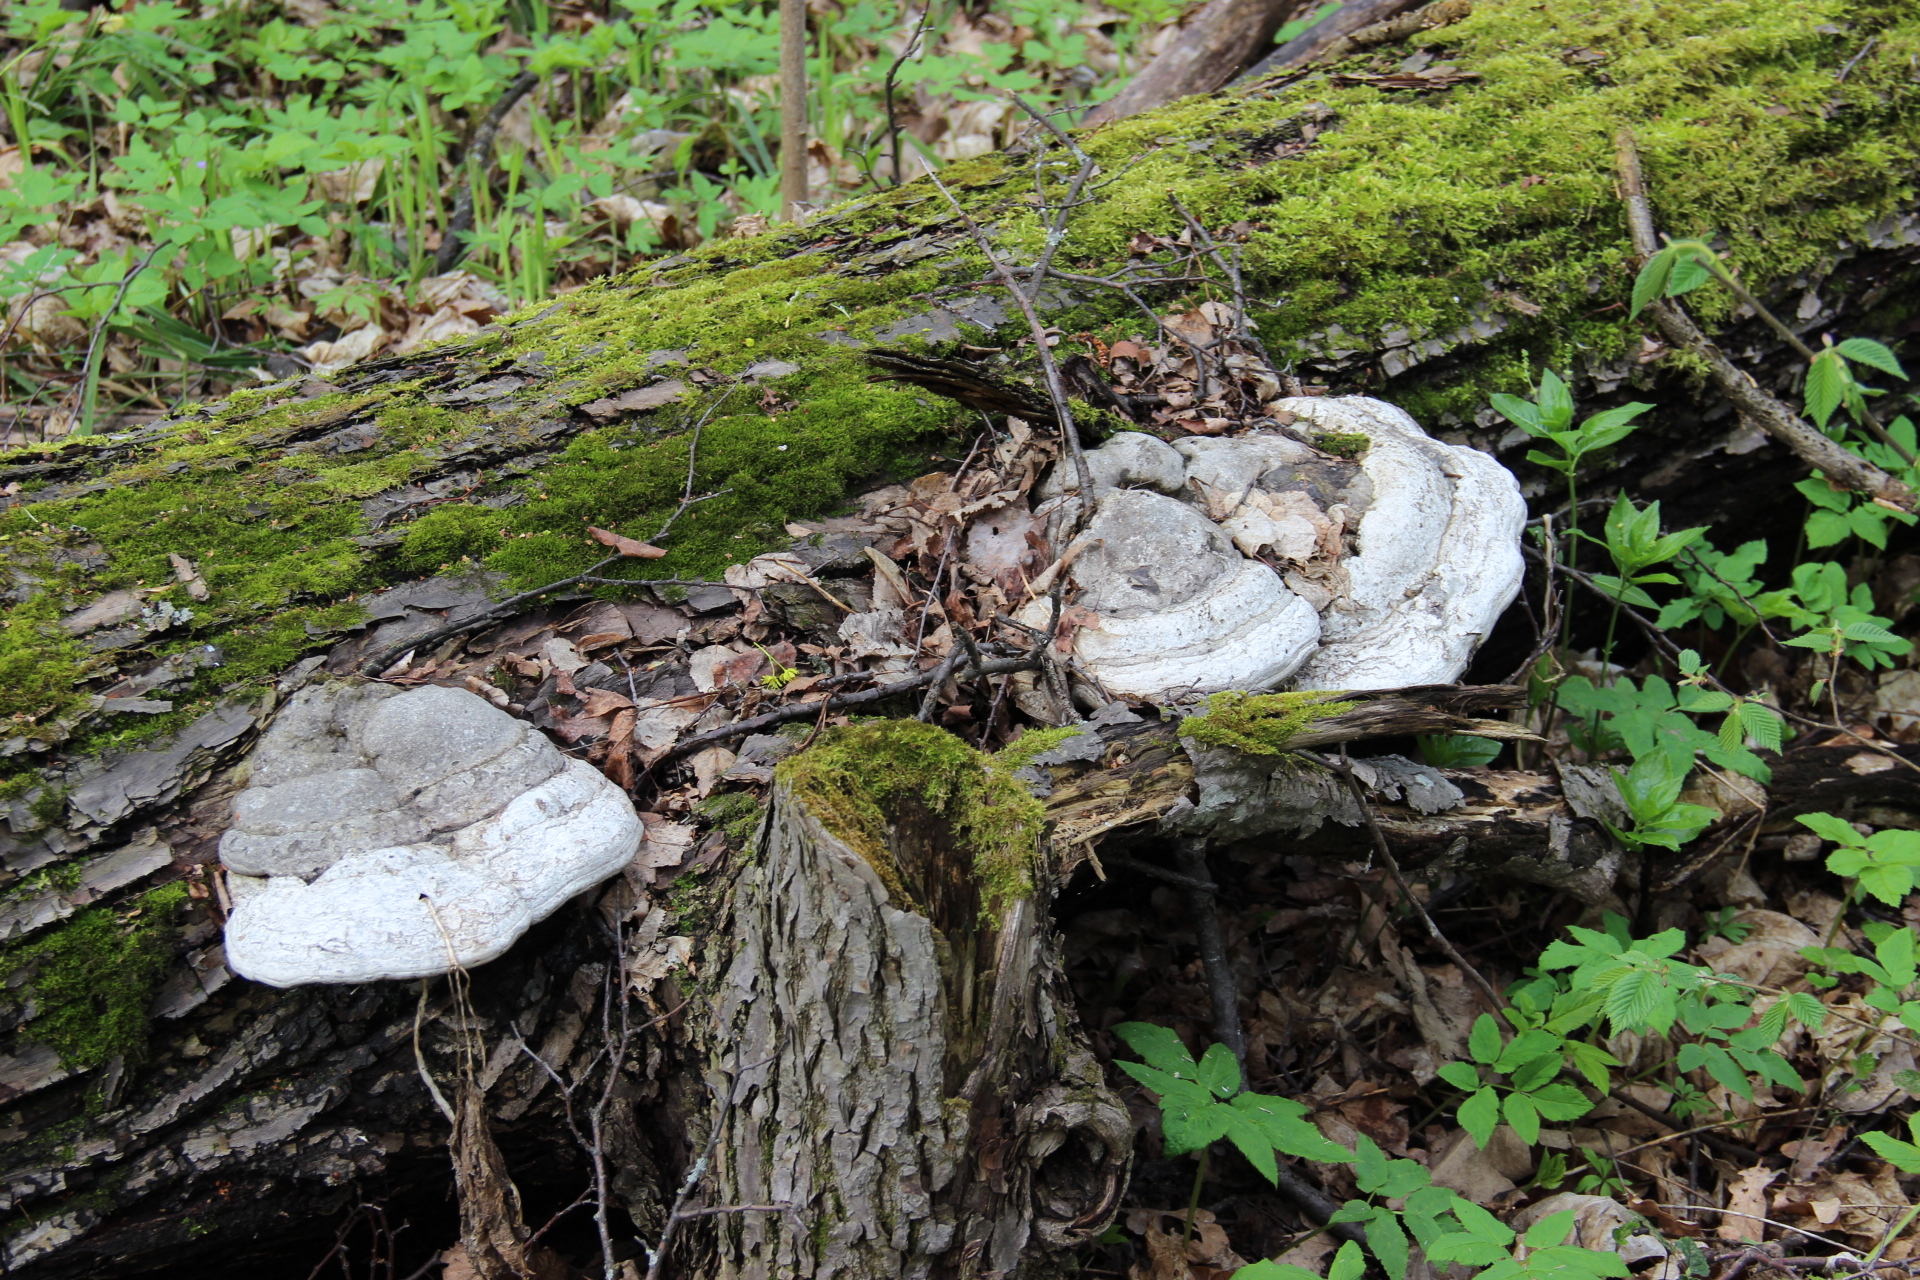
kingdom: Fungi
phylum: Basidiomycota
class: Agaricomycetes
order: Polyporales
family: Polyporaceae
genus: Fomes
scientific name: Fomes fomentarius
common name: Hoof fungus
